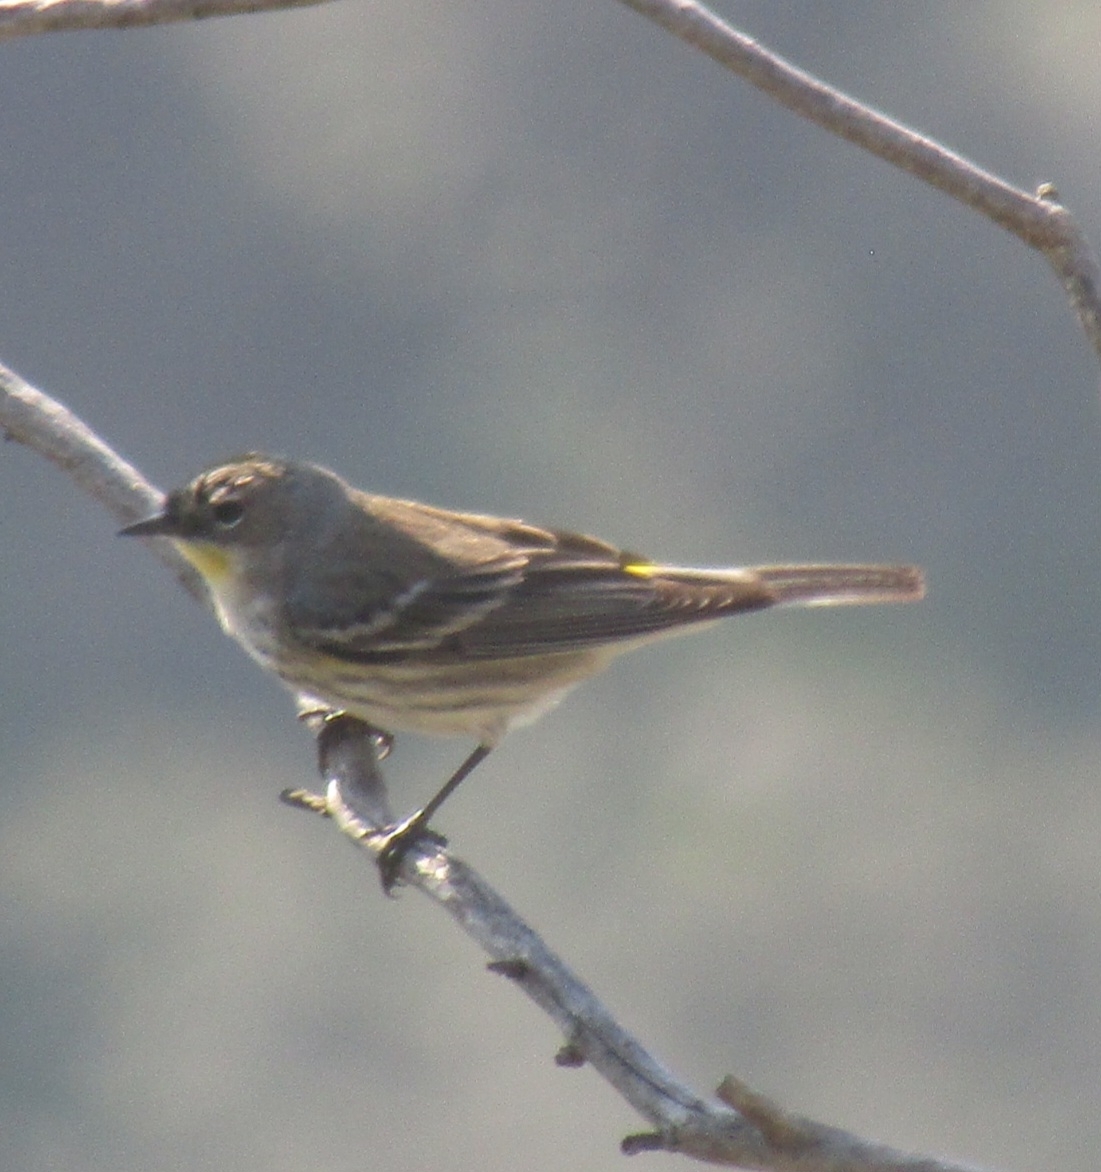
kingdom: Animalia
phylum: Chordata
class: Aves
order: Passeriformes
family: Parulidae
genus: Setophaga
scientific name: Setophaga coronata
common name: Myrtle warbler
